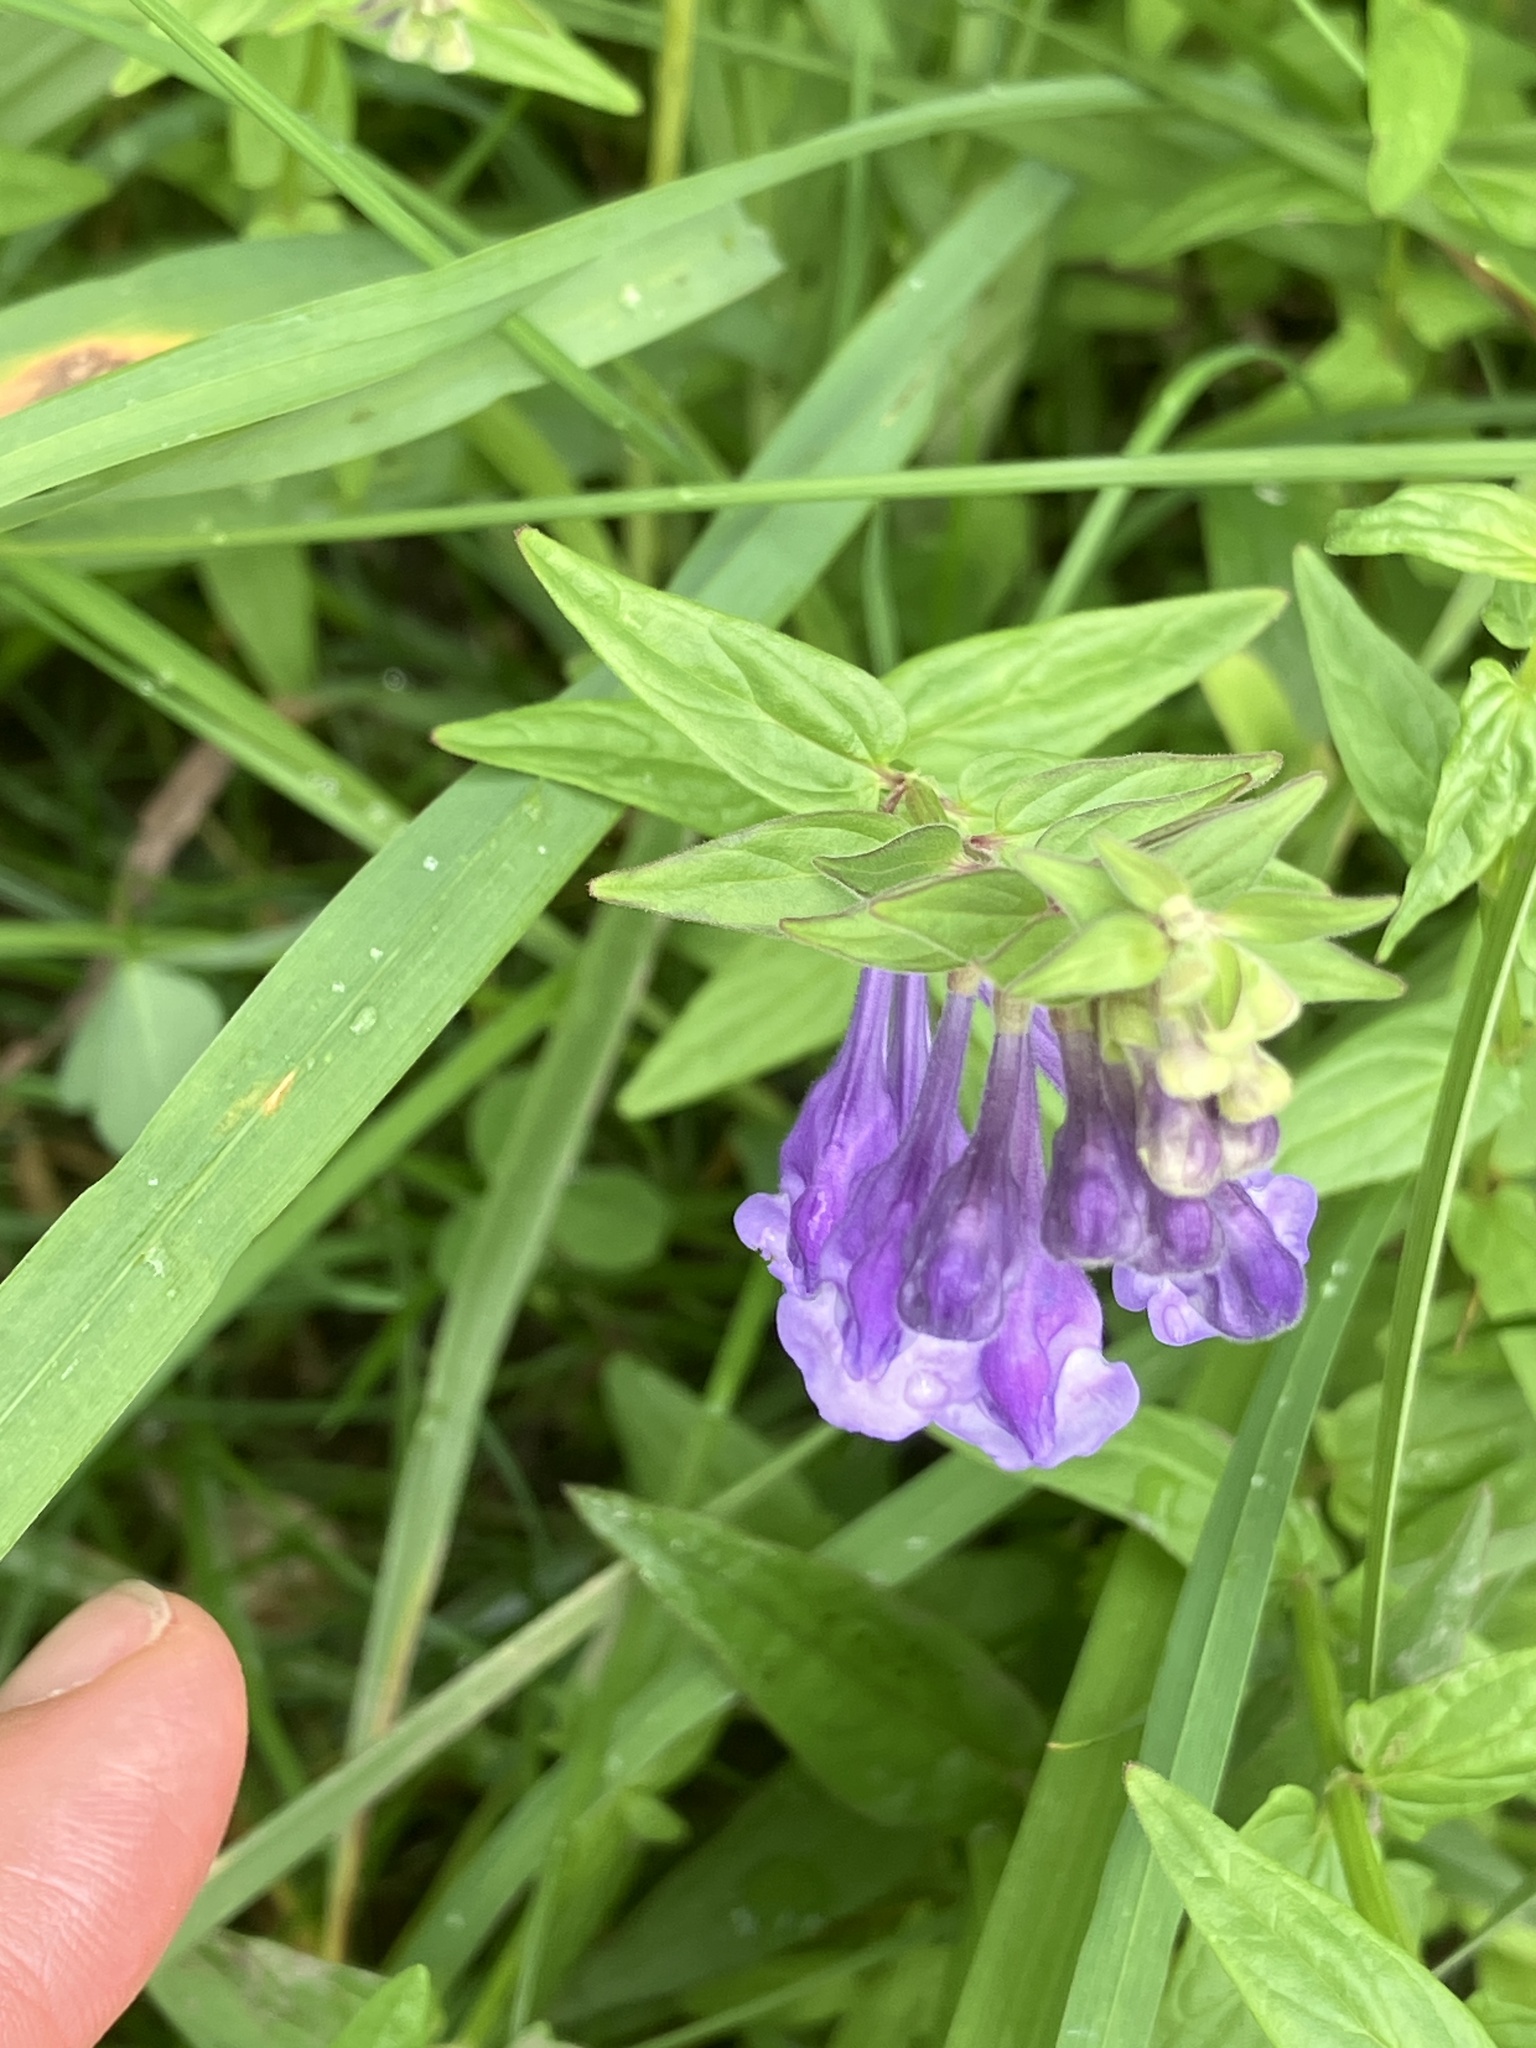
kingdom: Plantae
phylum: Tracheophyta
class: Magnoliopsida
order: Lamiales
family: Lamiaceae
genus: Scutellaria
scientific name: Scutellaria hastifolia
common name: Norfolk skullcap
